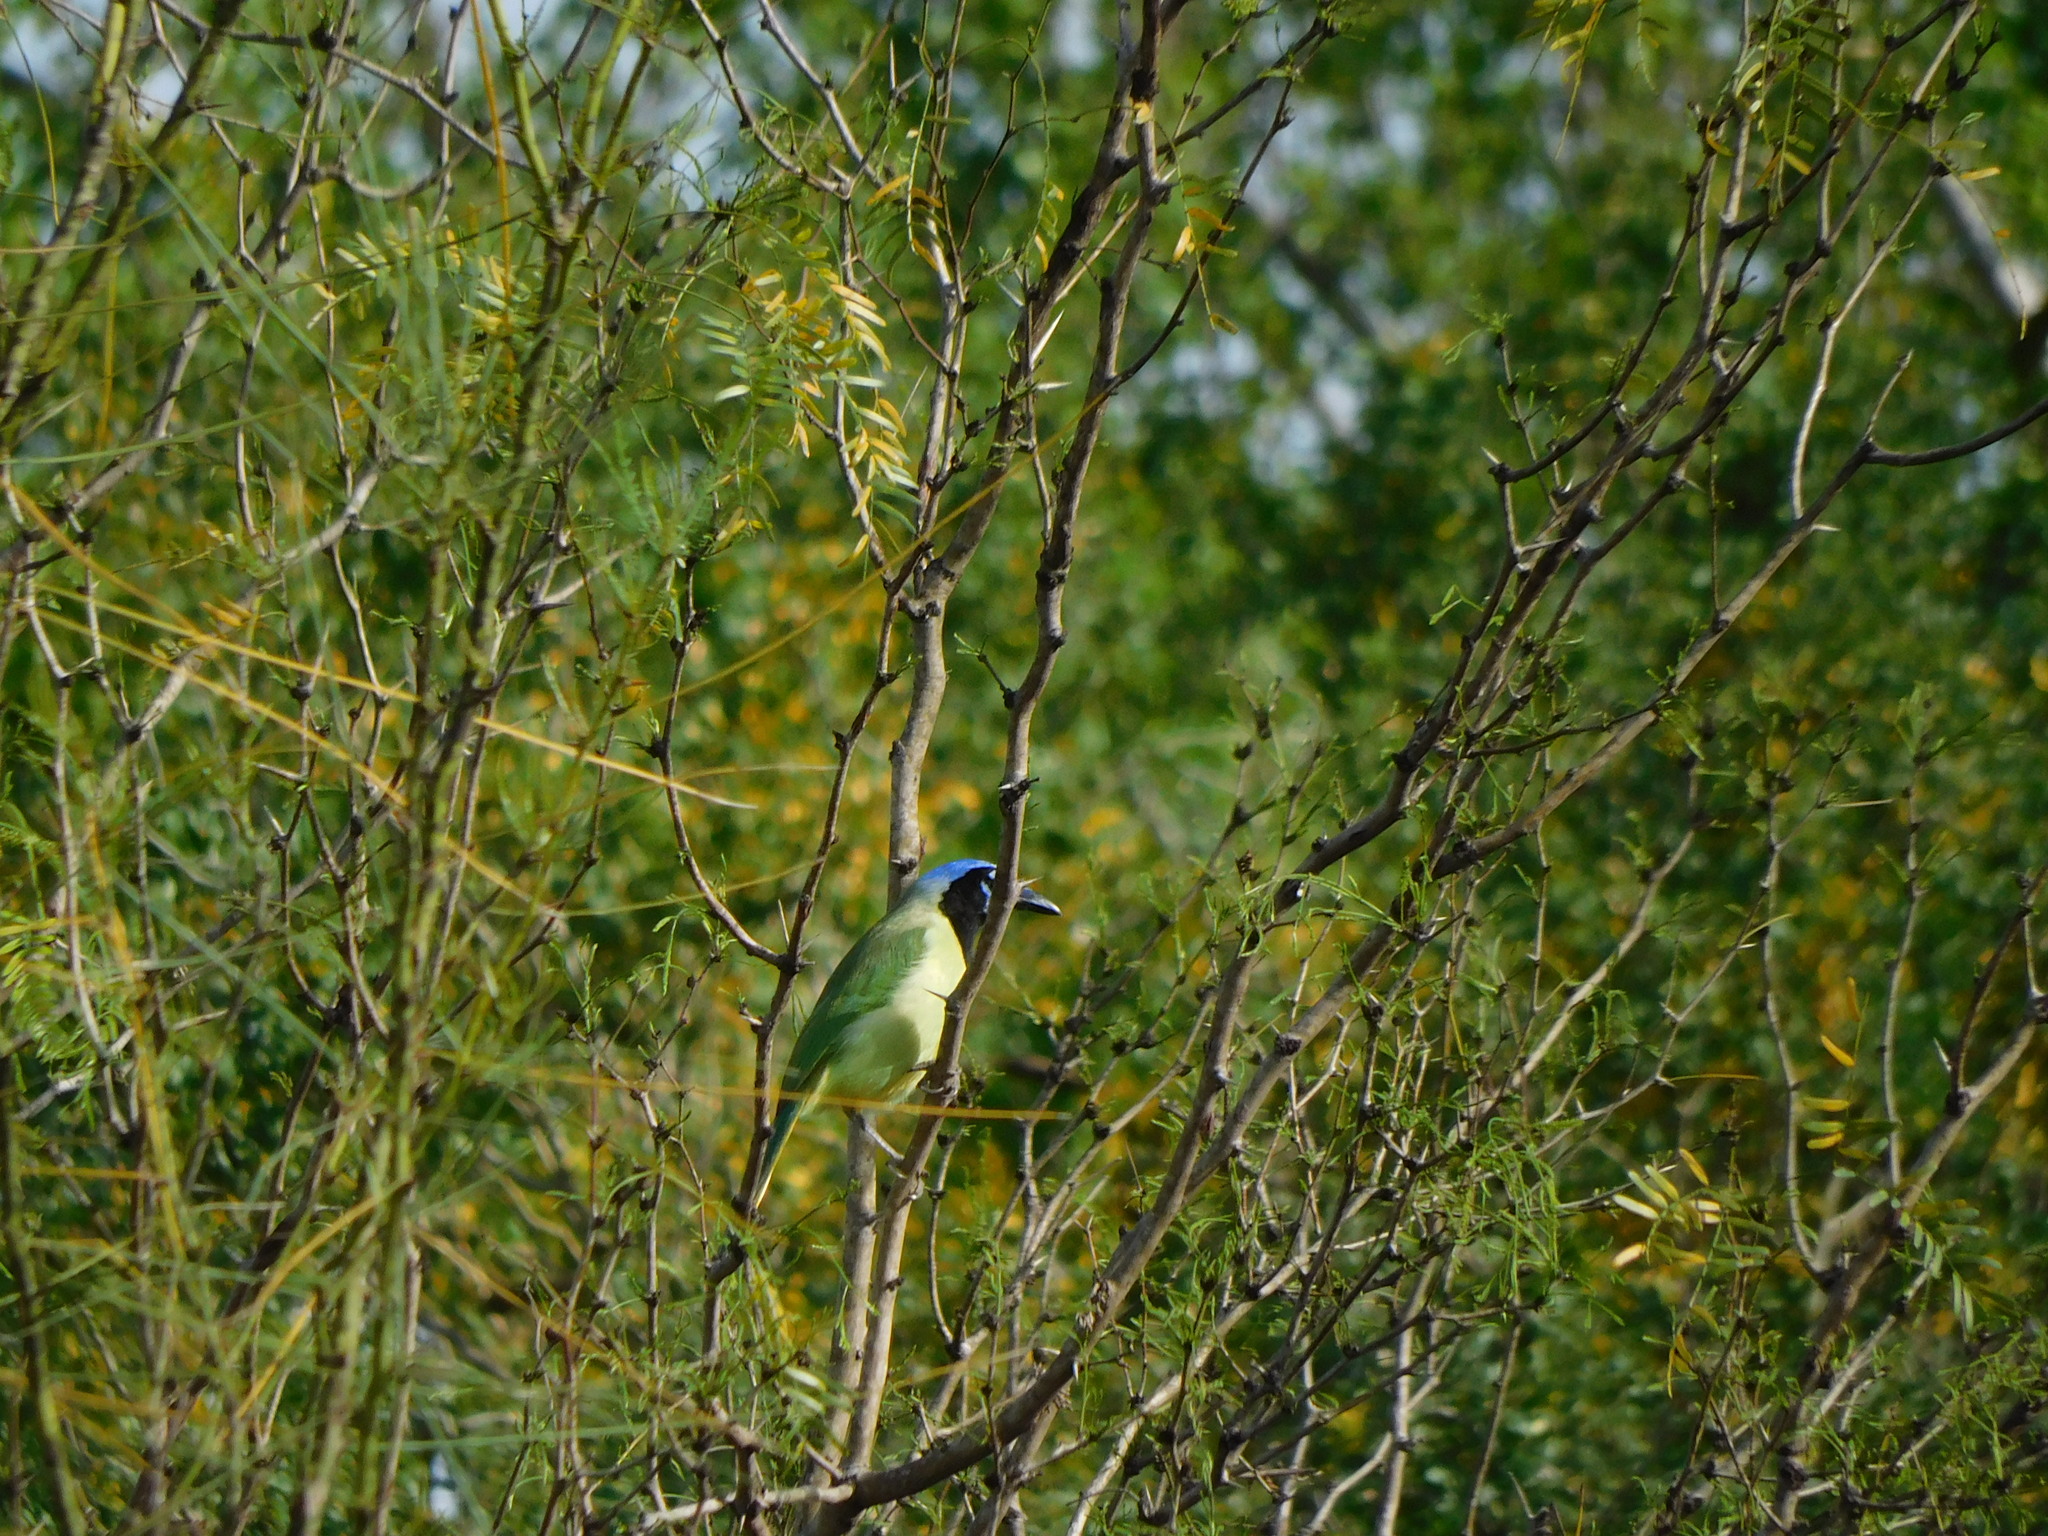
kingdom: Animalia
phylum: Chordata
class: Aves
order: Passeriformes
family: Corvidae
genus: Cyanocorax
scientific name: Cyanocorax yncas
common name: Green jay
